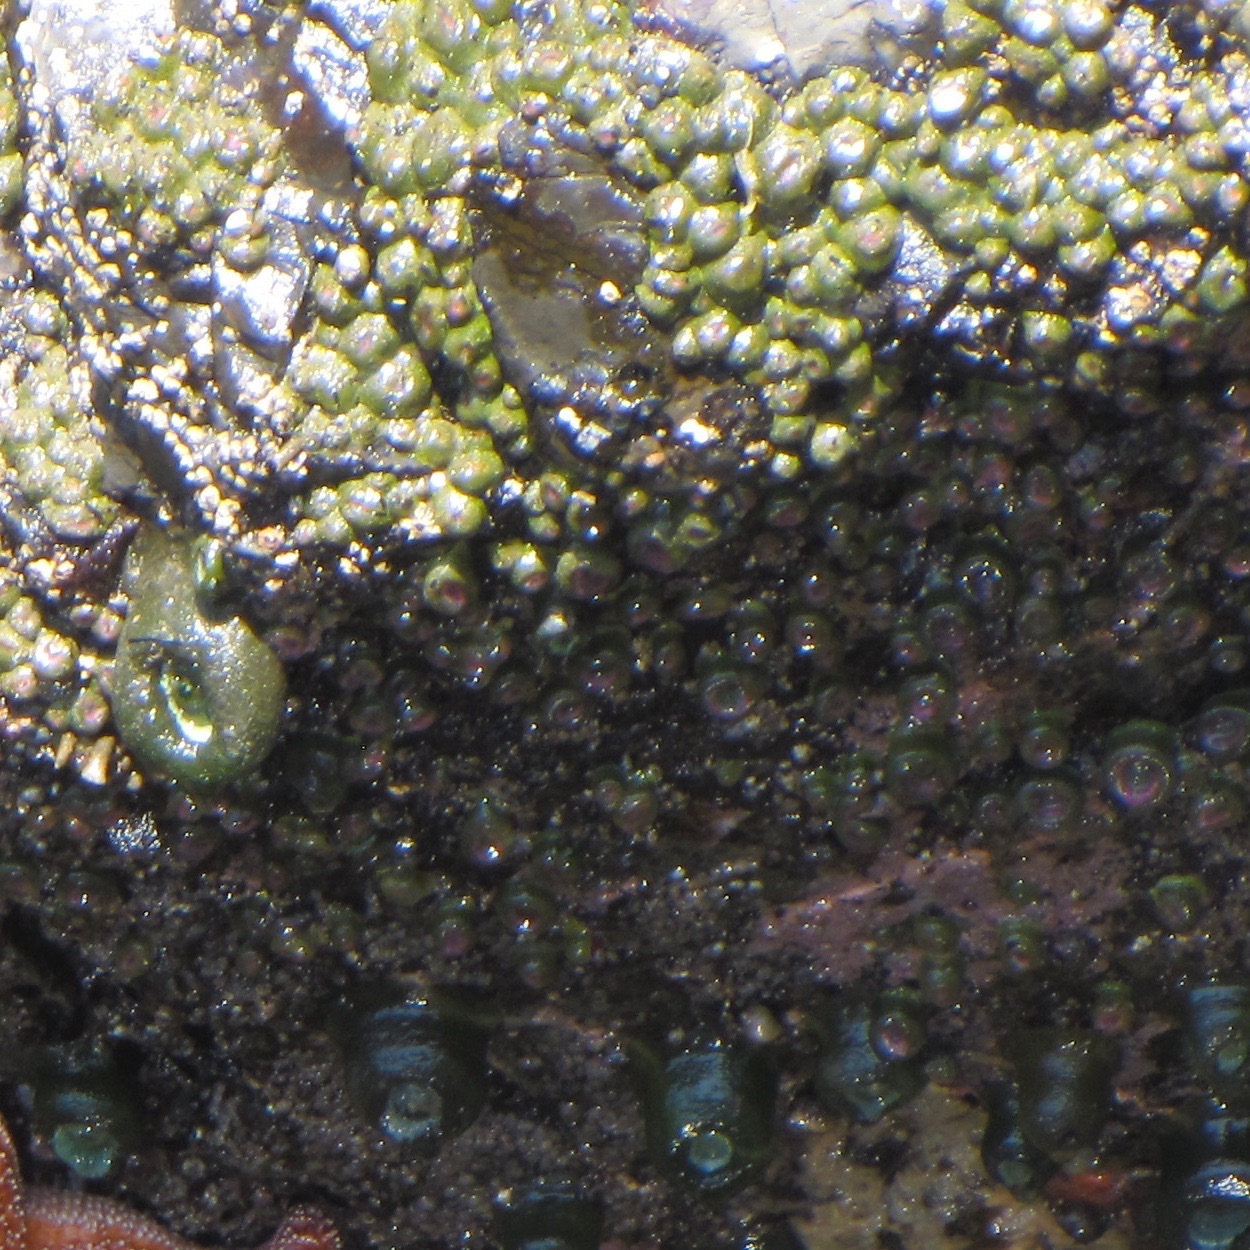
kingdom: Animalia
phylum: Cnidaria
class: Anthozoa
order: Actiniaria
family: Actiniidae
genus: Anthopleura
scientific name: Anthopleura elegantissima
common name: Clonal anemone
